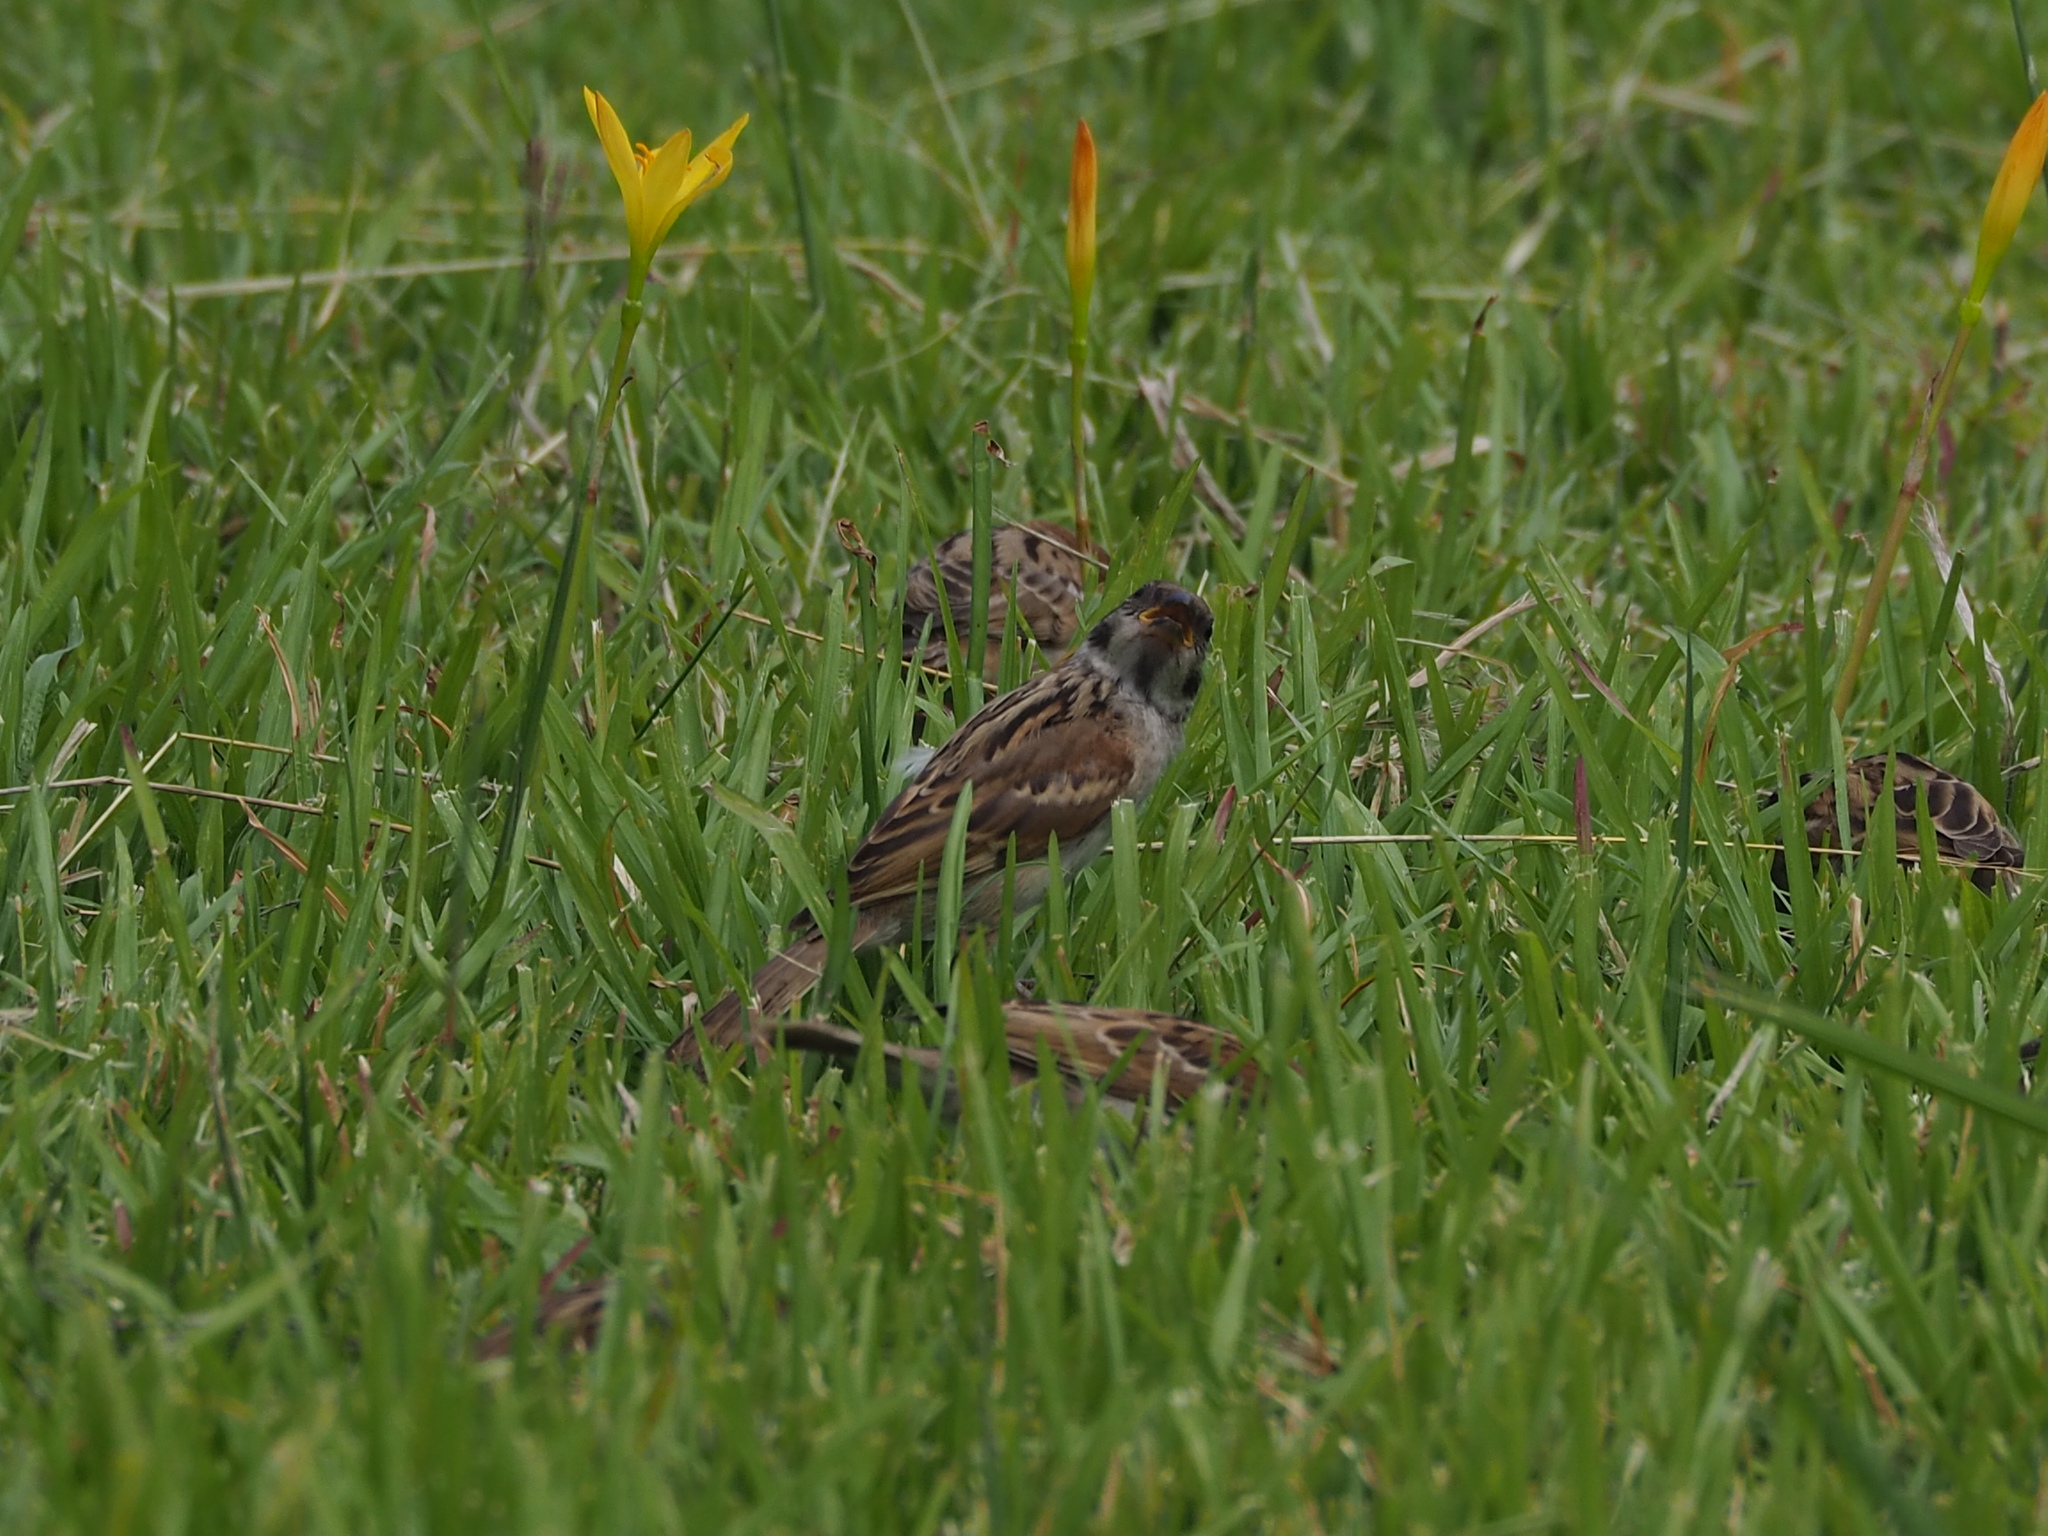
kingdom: Animalia
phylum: Chordata
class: Aves
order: Passeriformes
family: Passeridae
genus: Passer
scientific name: Passer montanus
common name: Eurasian tree sparrow
